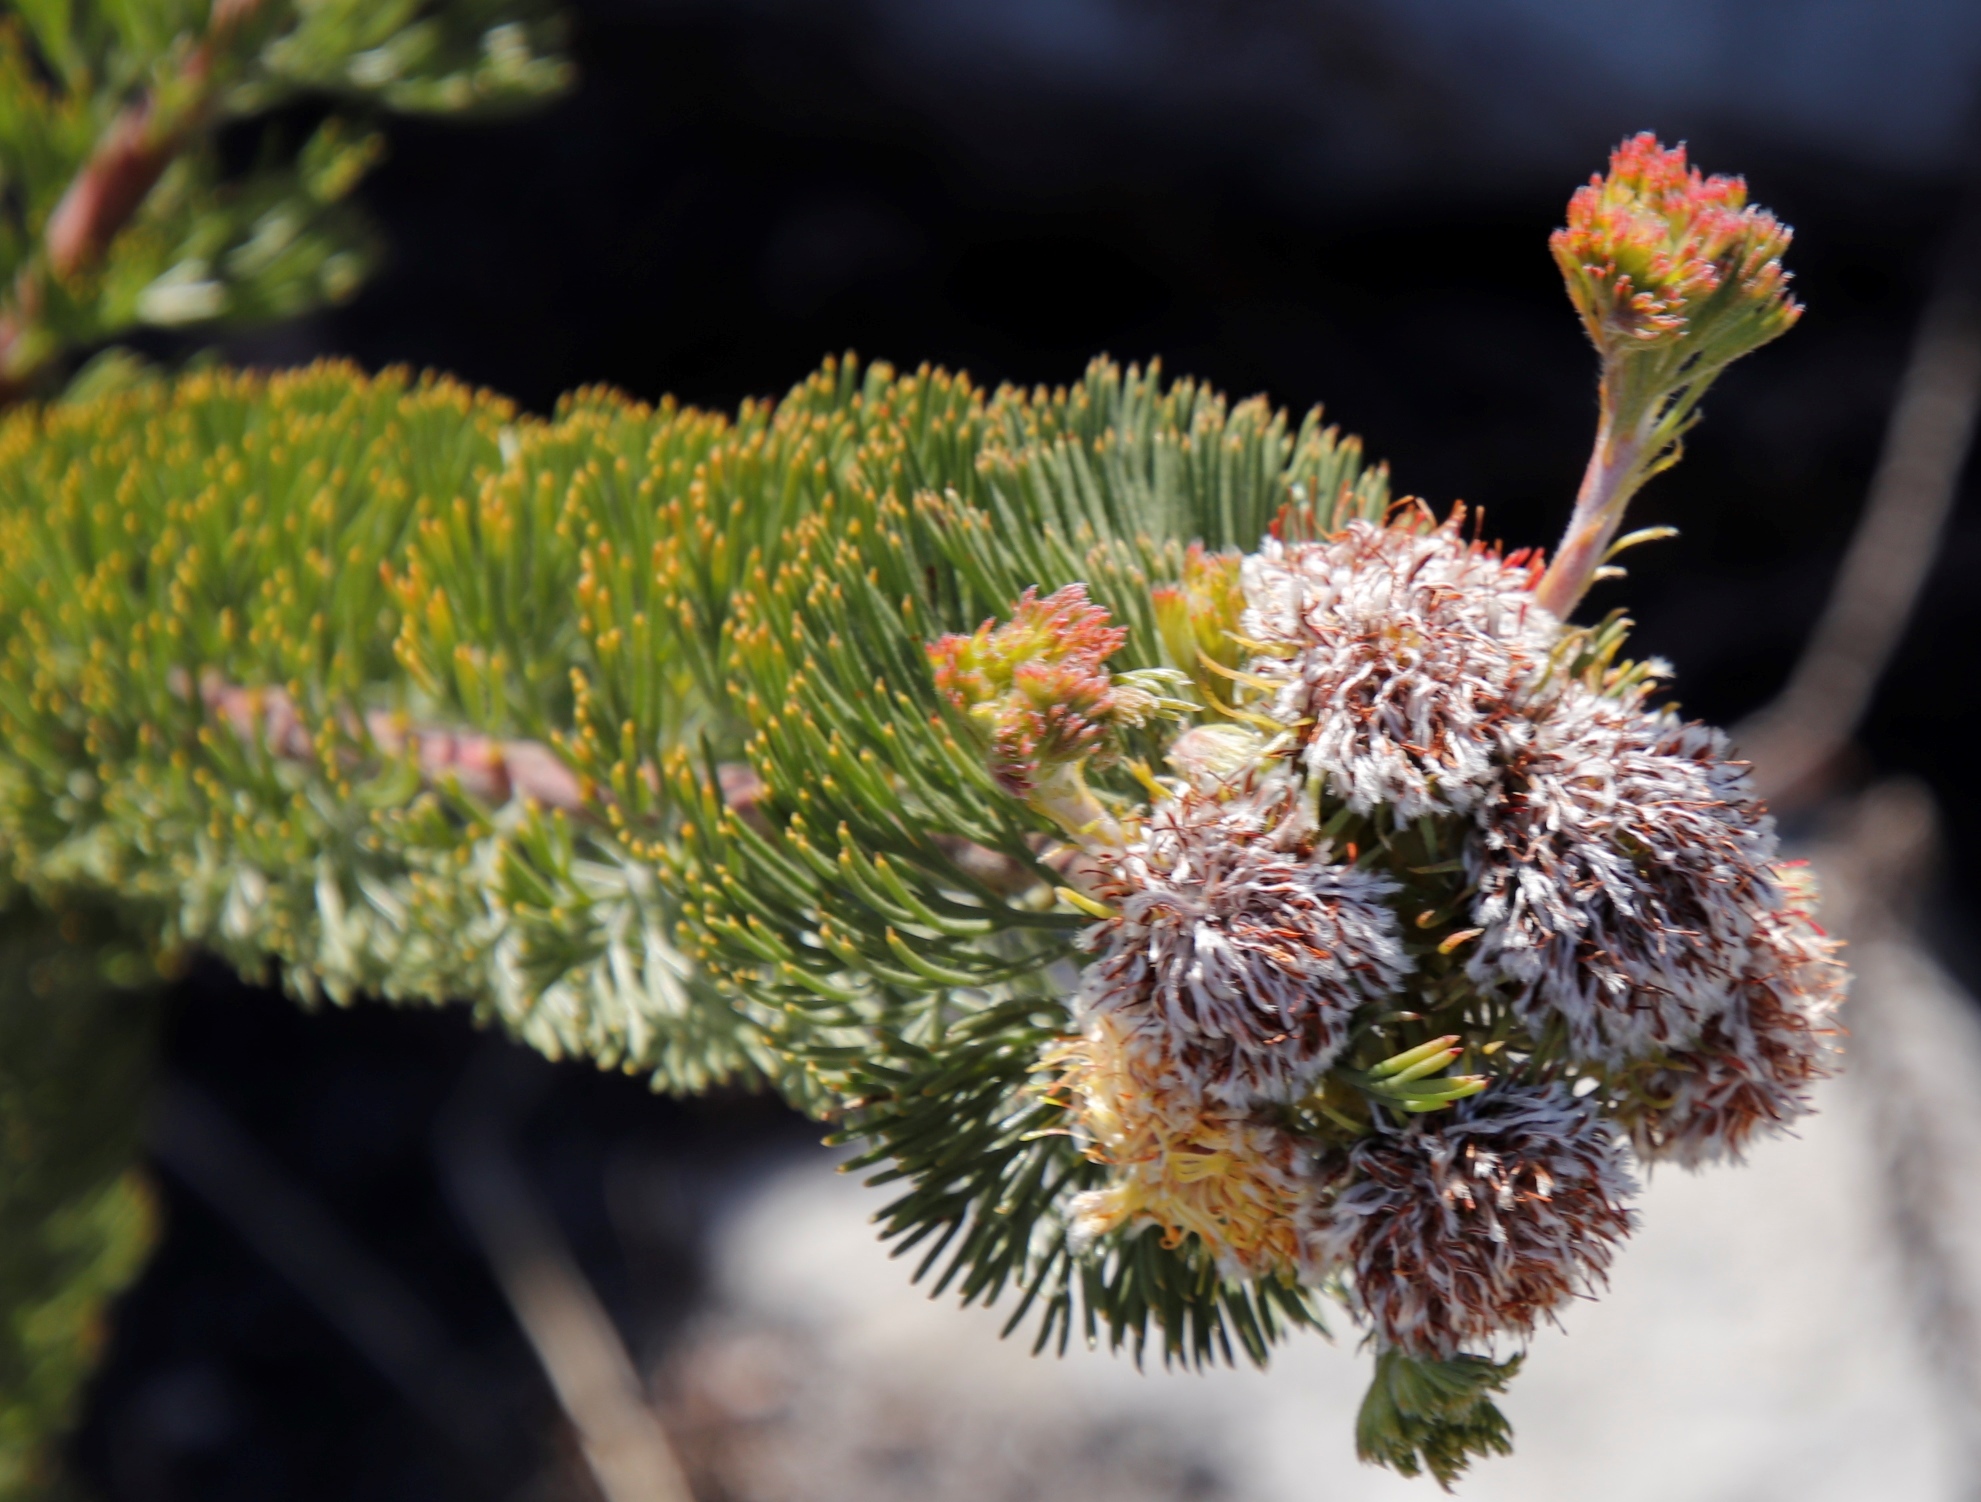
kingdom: Plantae
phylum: Tracheophyta
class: Magnoliopsida
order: Proteales
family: Proteaceae
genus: Serruria
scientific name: Serruria
